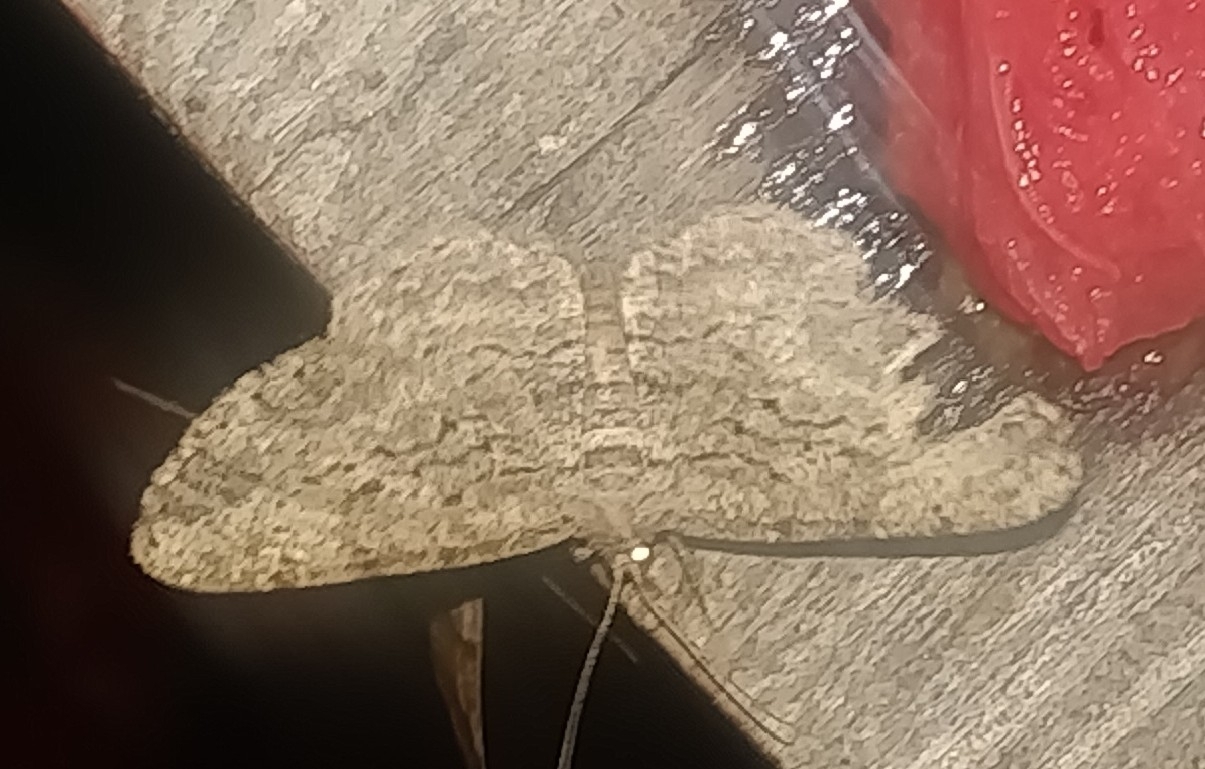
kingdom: Animalia
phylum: Arthropoda
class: Insecta
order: Lepidoptera
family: Geometridae
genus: Anavitrinella
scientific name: Anavitrinella pampinaria
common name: Common gray
